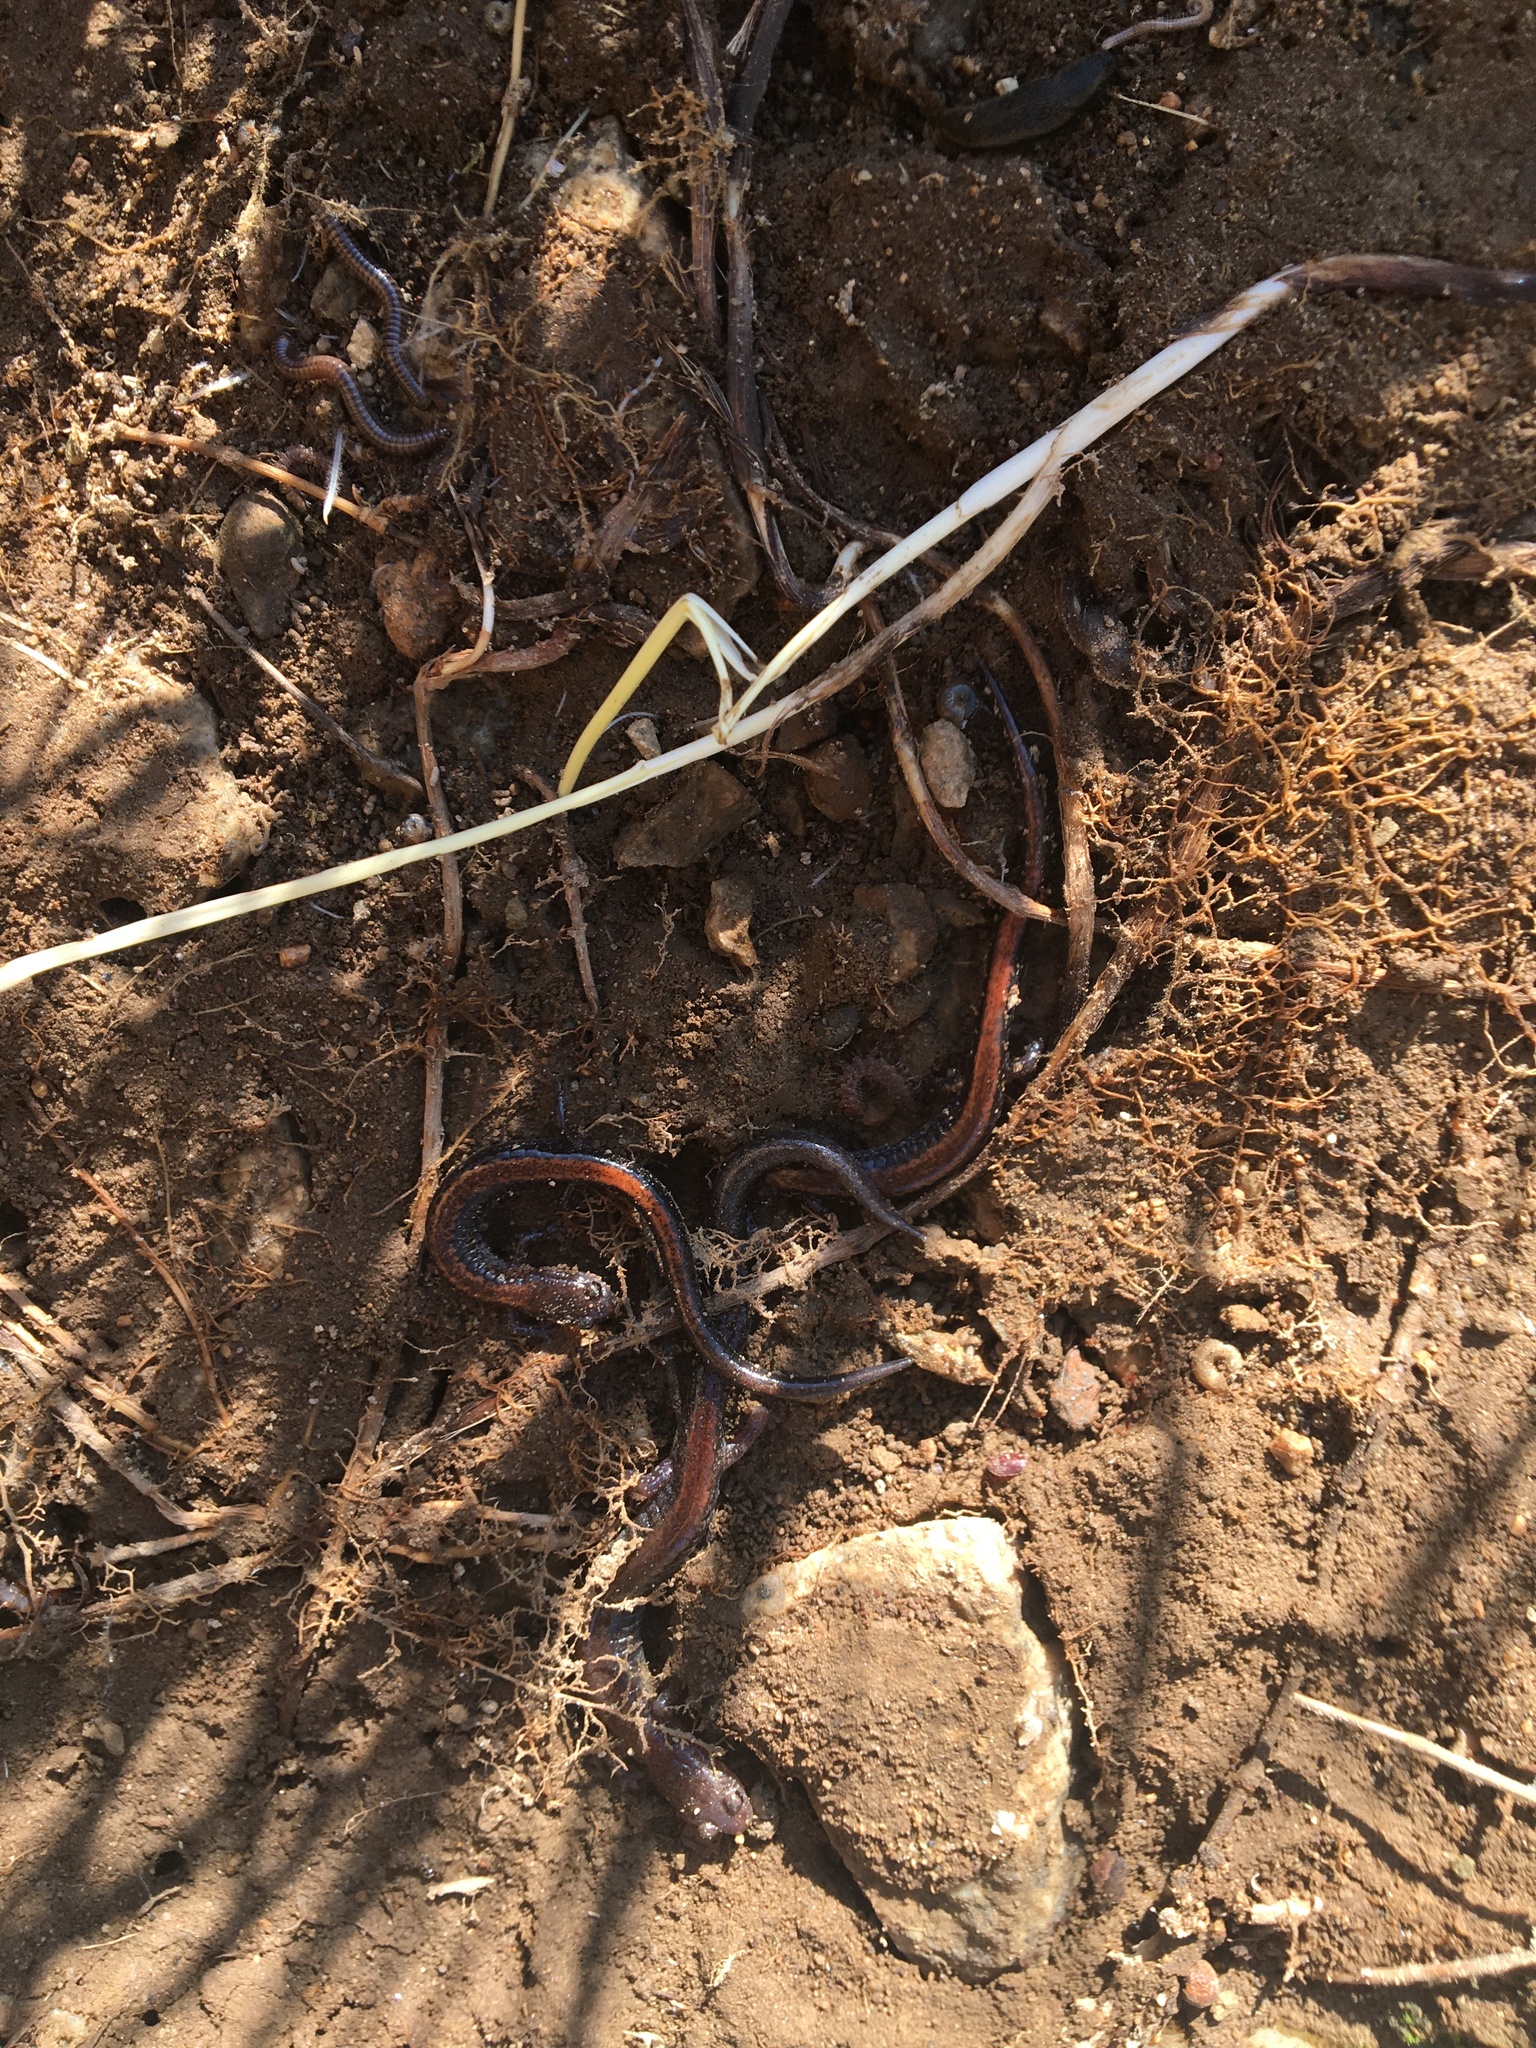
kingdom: Animalia
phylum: Chordata
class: Amphibia
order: Caudata
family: Plethodontidae
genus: Plethodon
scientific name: Plethodon cinereus
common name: Redback salamander
